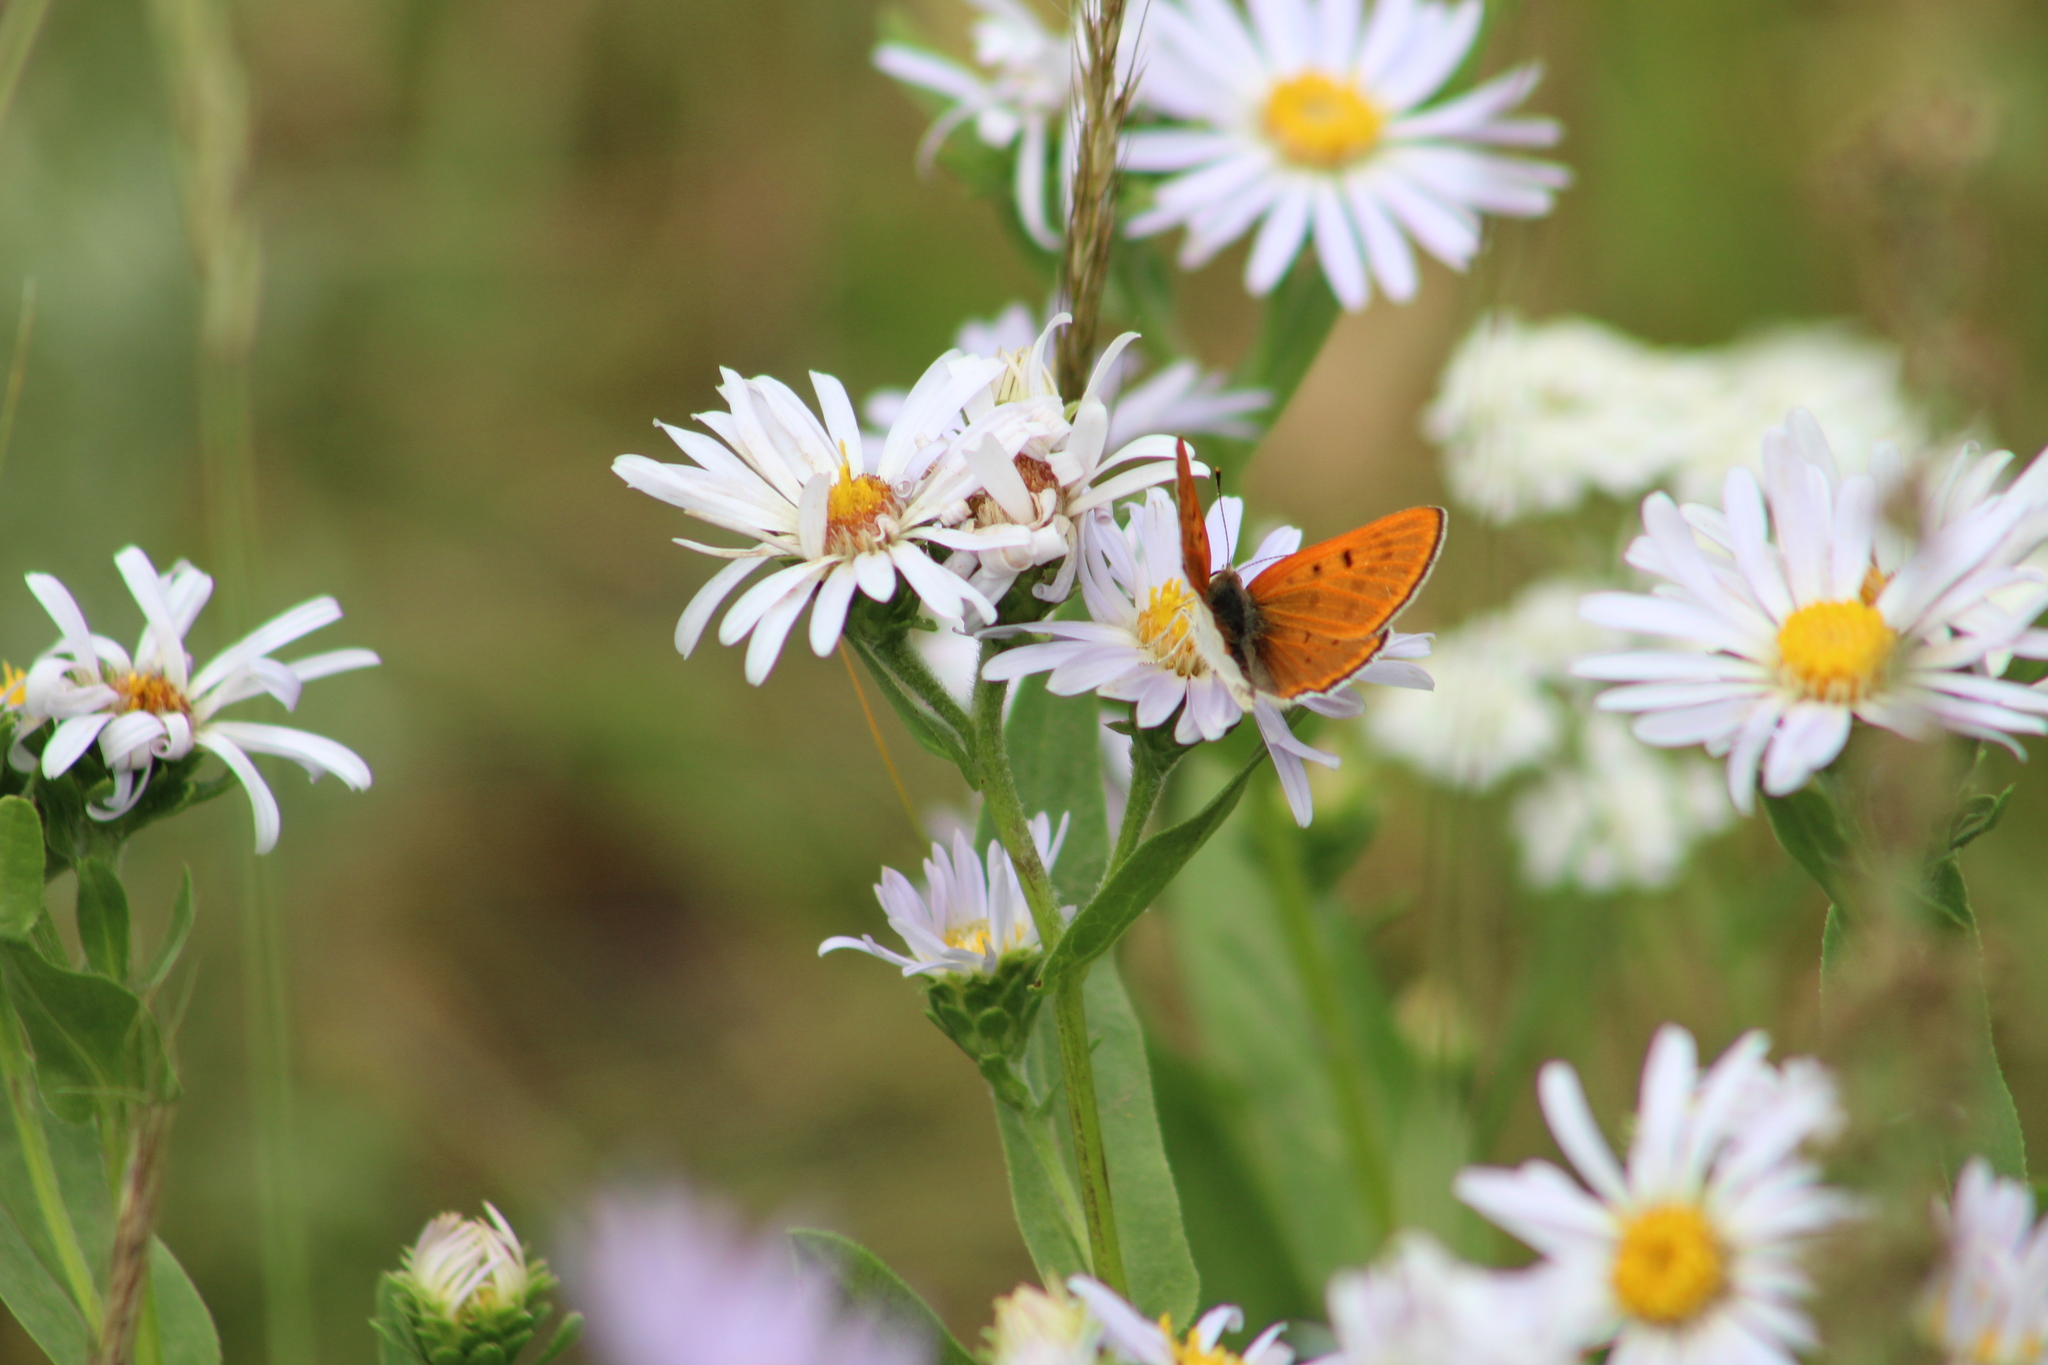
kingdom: Animalia
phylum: Arthropoda
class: Insecta
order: Lepidoptera
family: Lycaenidae
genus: Tharsalea
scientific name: Tharsalea rubidus
